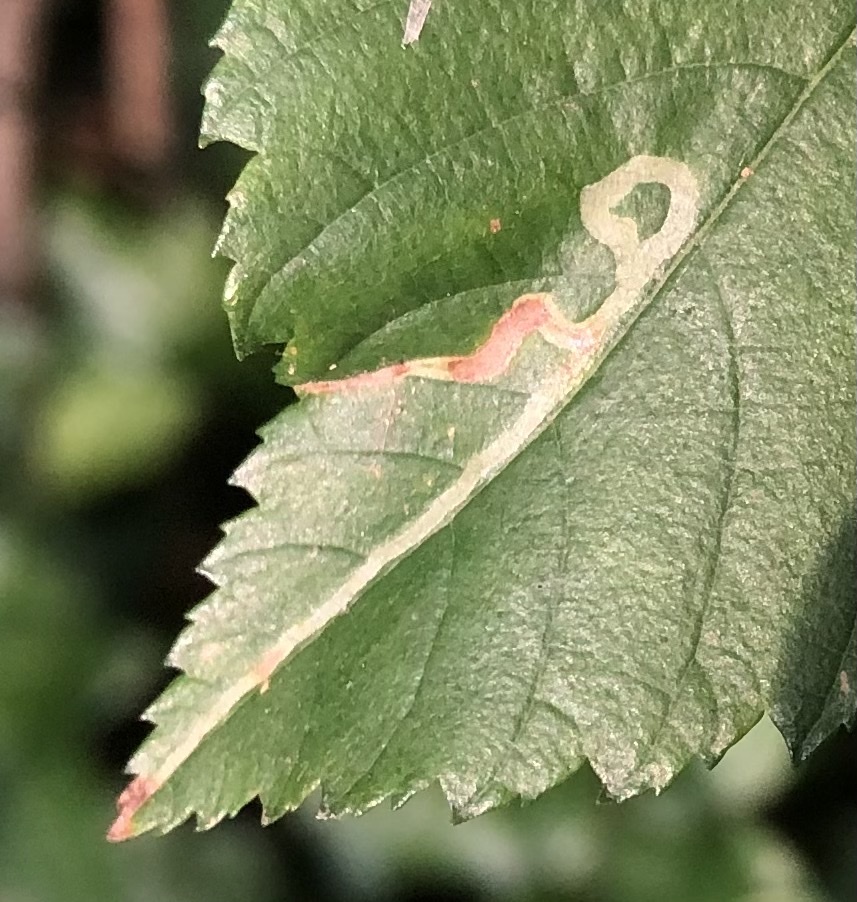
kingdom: Animalia
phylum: Arthropoda
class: Insecta
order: Diptera
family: Agromyzidae
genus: Agromyza
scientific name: Agromyza aristata
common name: Elm agromyzid leafminer
